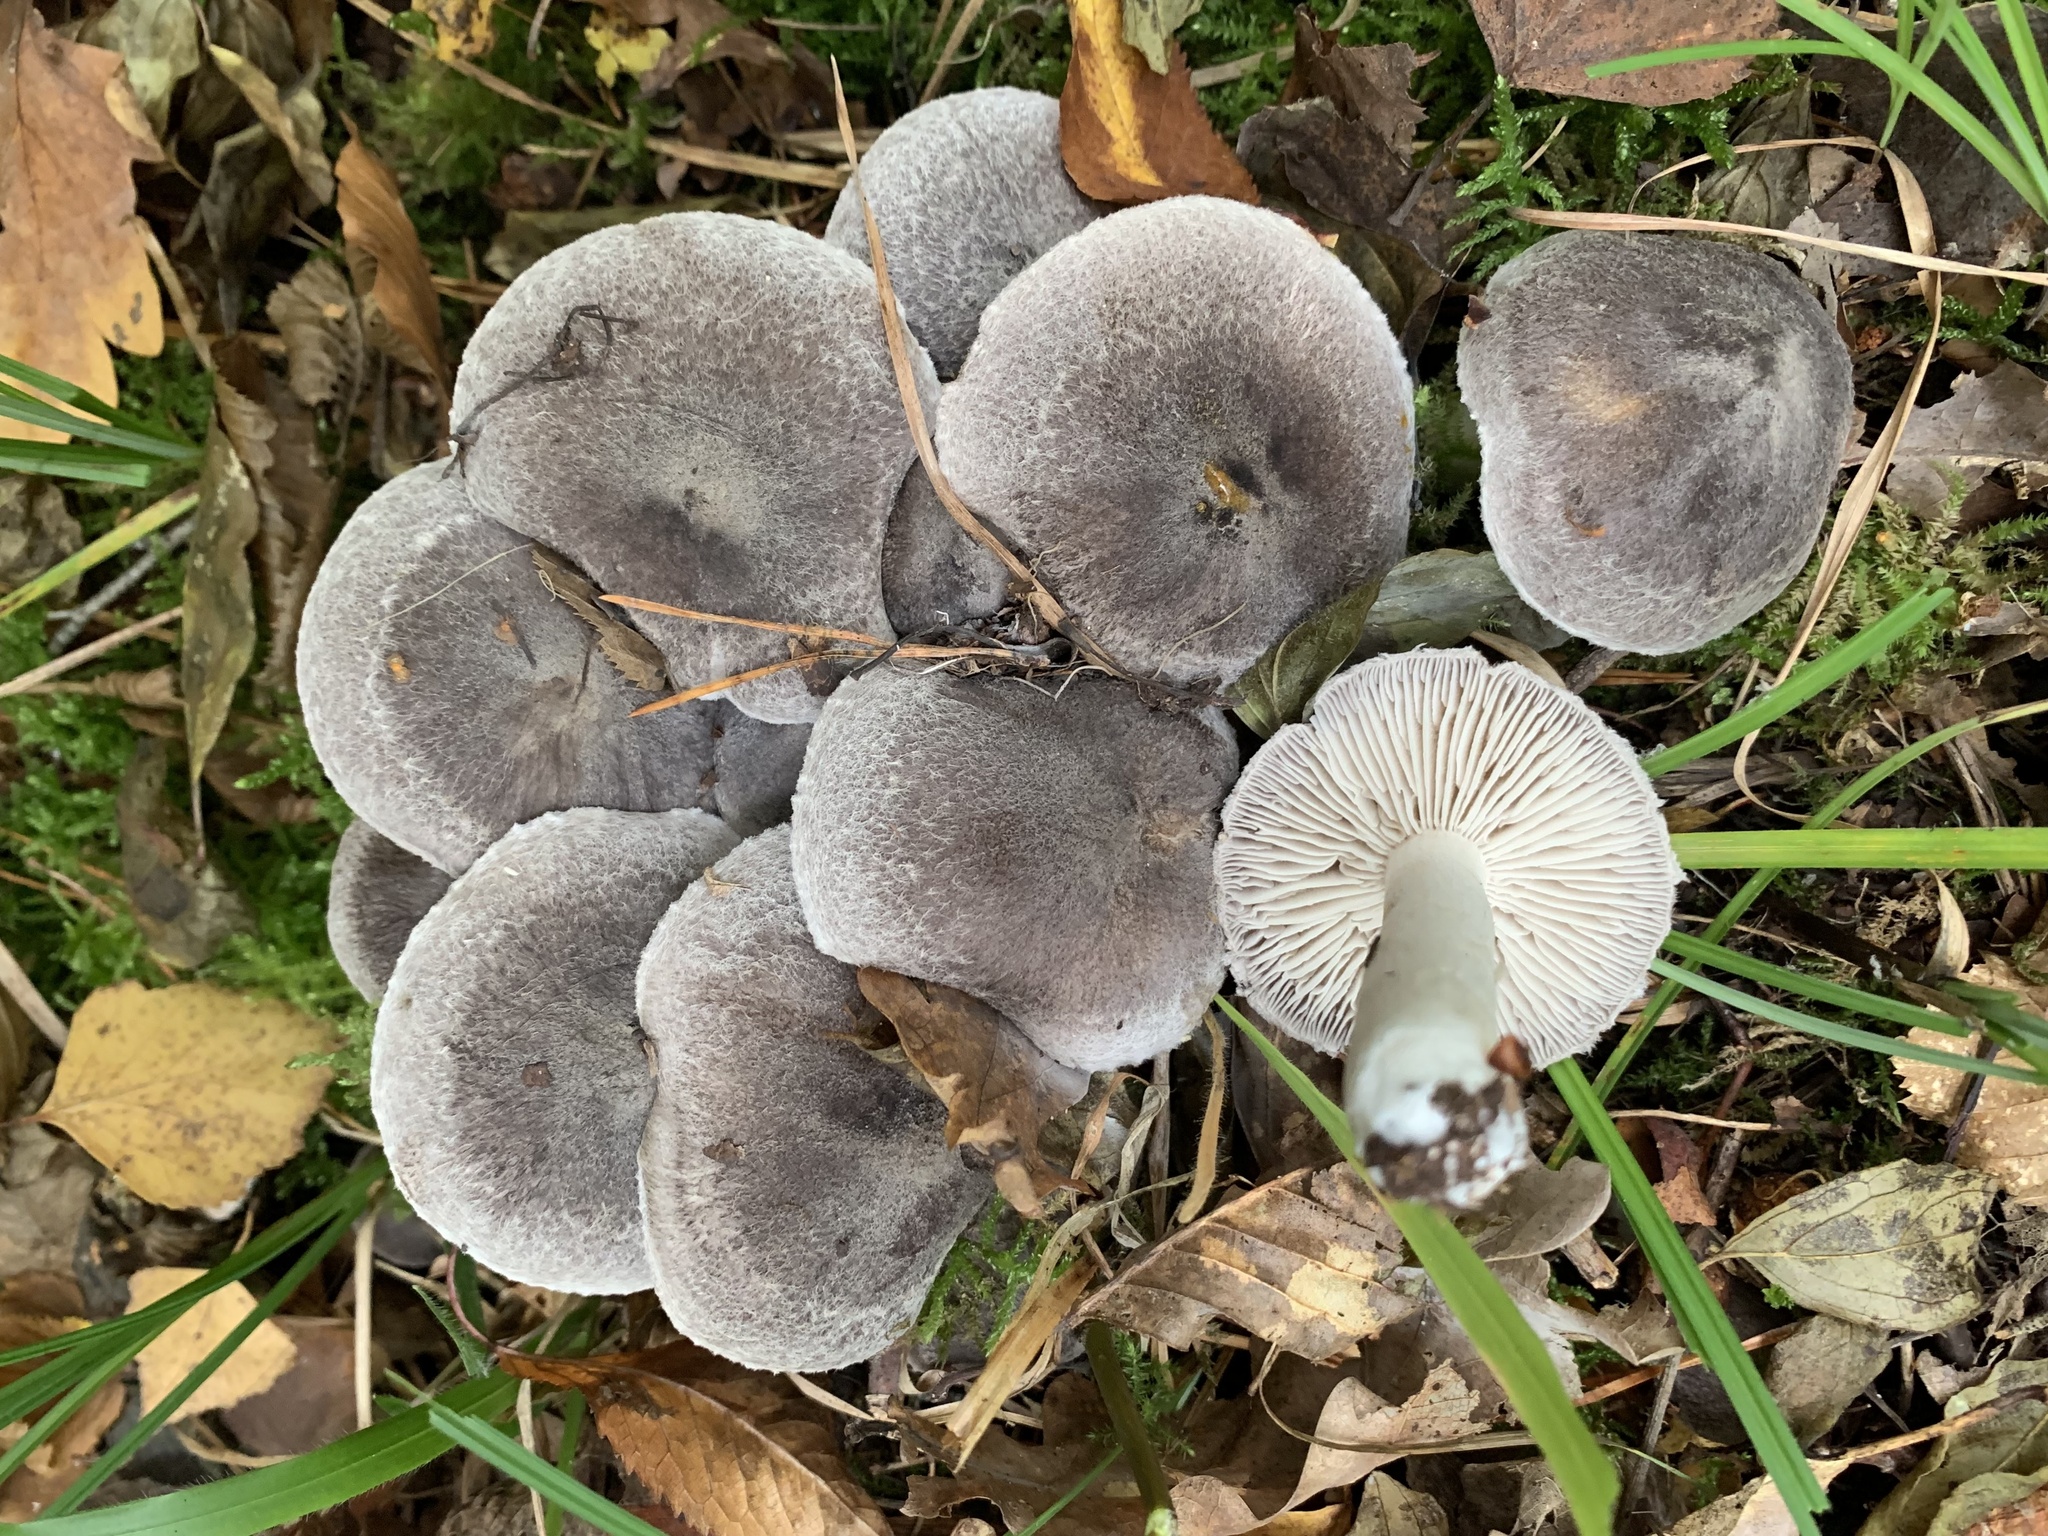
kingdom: Fungi
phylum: Basidiomycota
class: Agaricomycetes
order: Agaricales
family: Tricholomataceae
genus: Tricholoma
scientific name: Tricholoma terreum
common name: Grey knight
